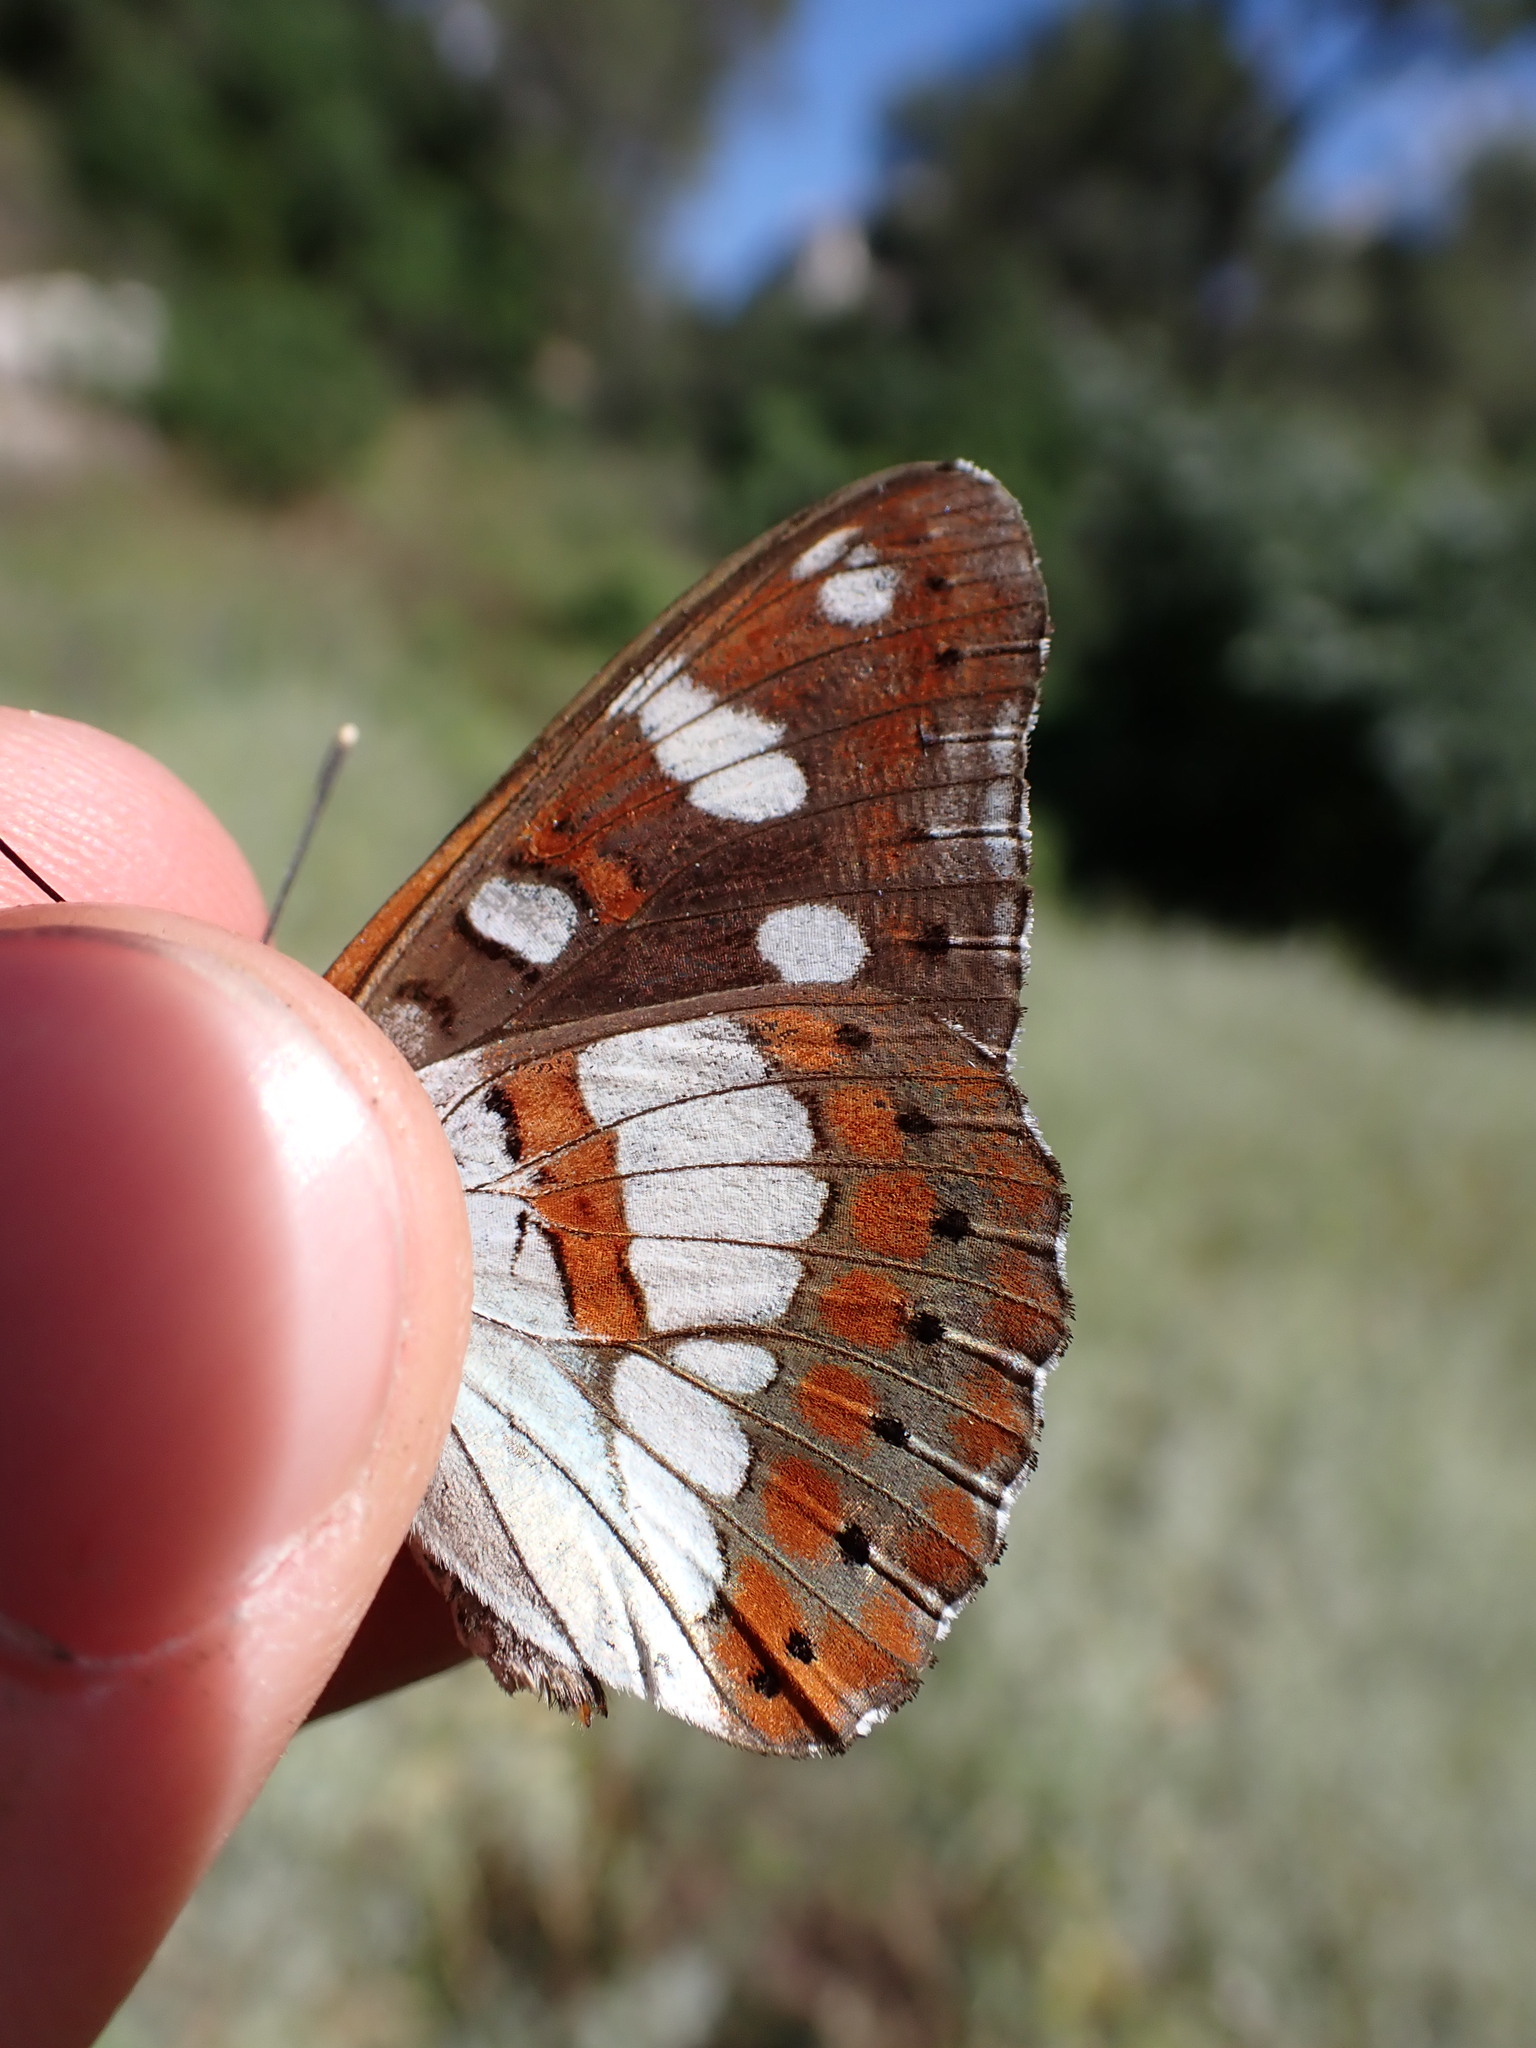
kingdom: Animalia
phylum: Arthropoda
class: Insecta
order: Lepidoptera
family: Nymphalidae
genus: Limenitis
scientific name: Limenitis reducta
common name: Southern white admiral
